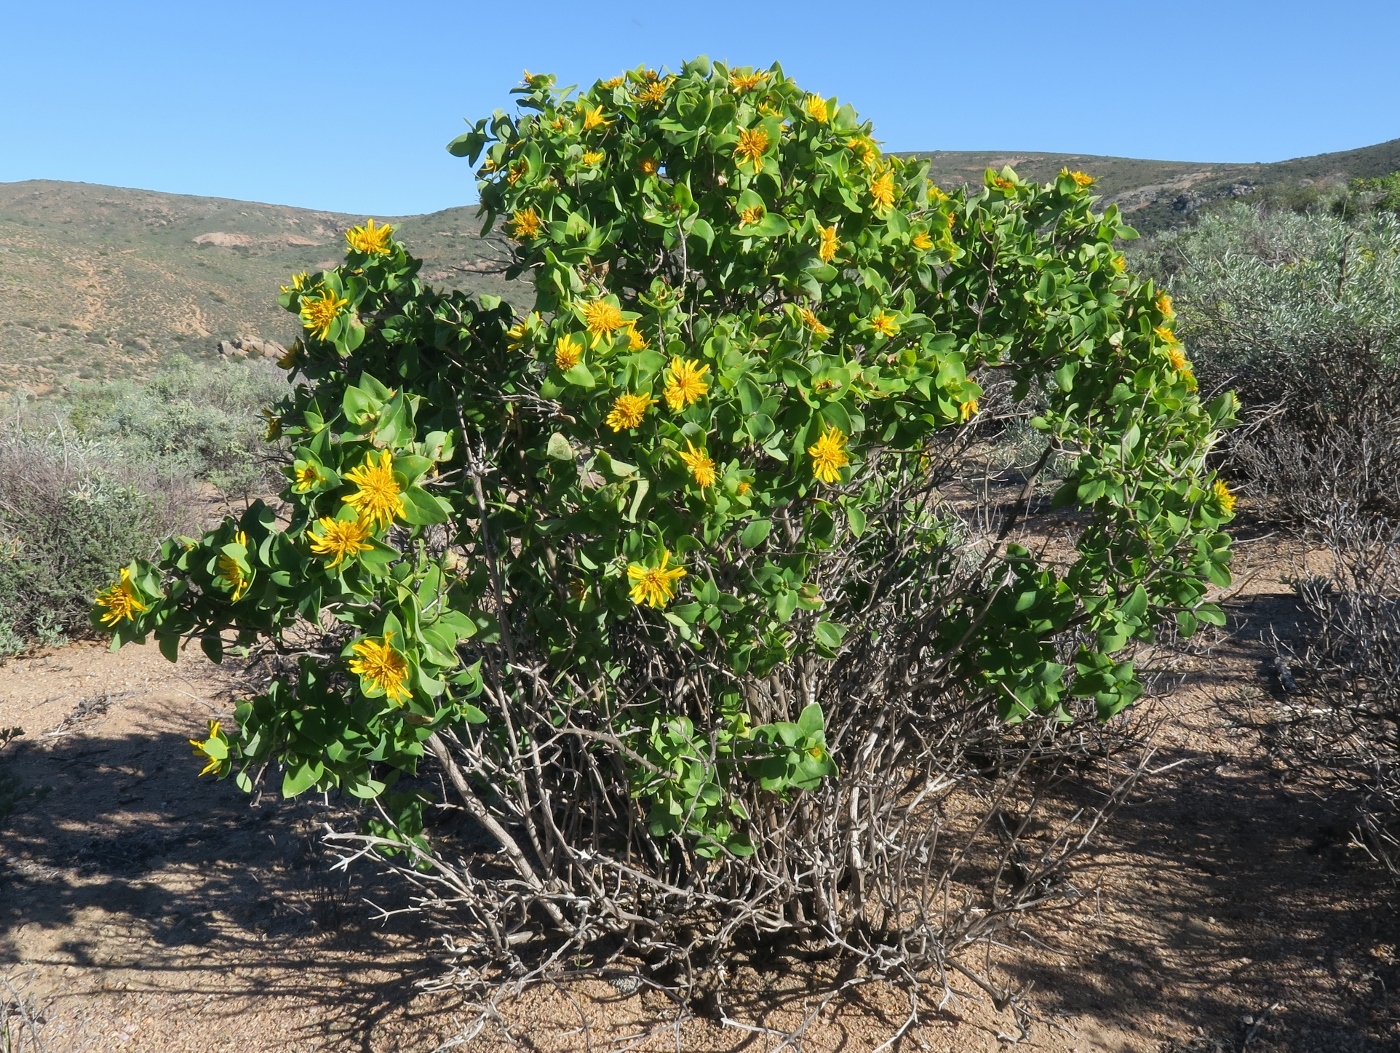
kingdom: Plantae
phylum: Tracheophyta
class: Magnoliopsida
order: Asterales
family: Asteraceae
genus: Didelta
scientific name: Didelta spinosa
